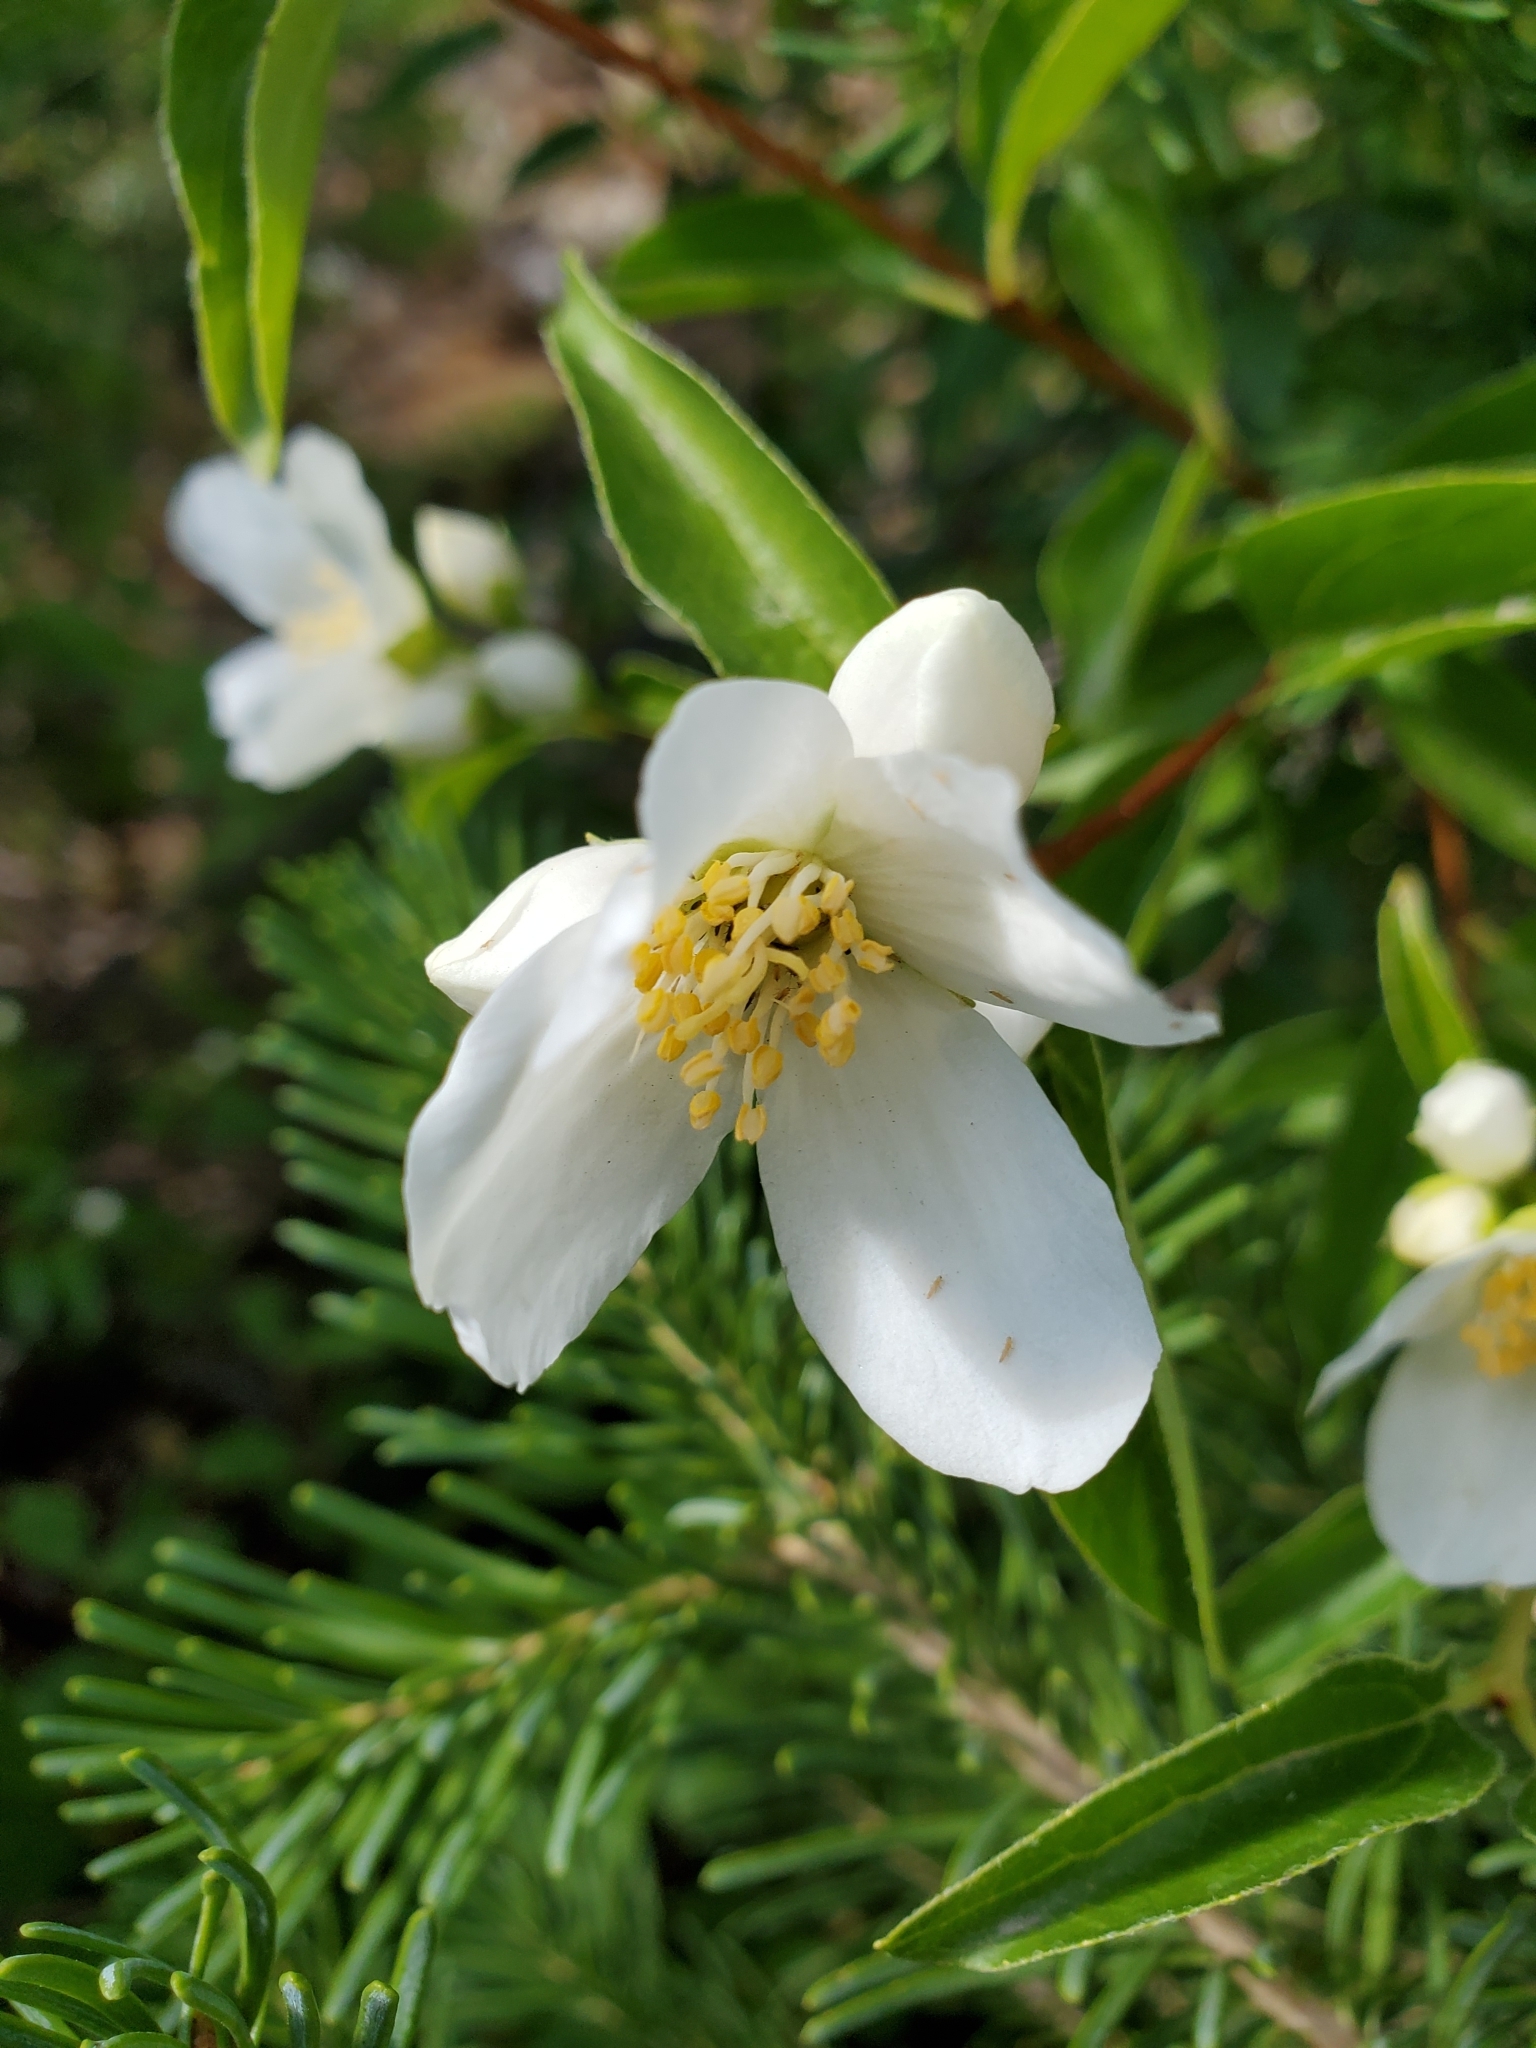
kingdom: Plantae
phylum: Tracheophyta
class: Magnoliopsida
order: Cornales
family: Hydrangeaceae
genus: Philadelphus
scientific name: Philadelphus lewisii
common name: Lewis's mock orange
